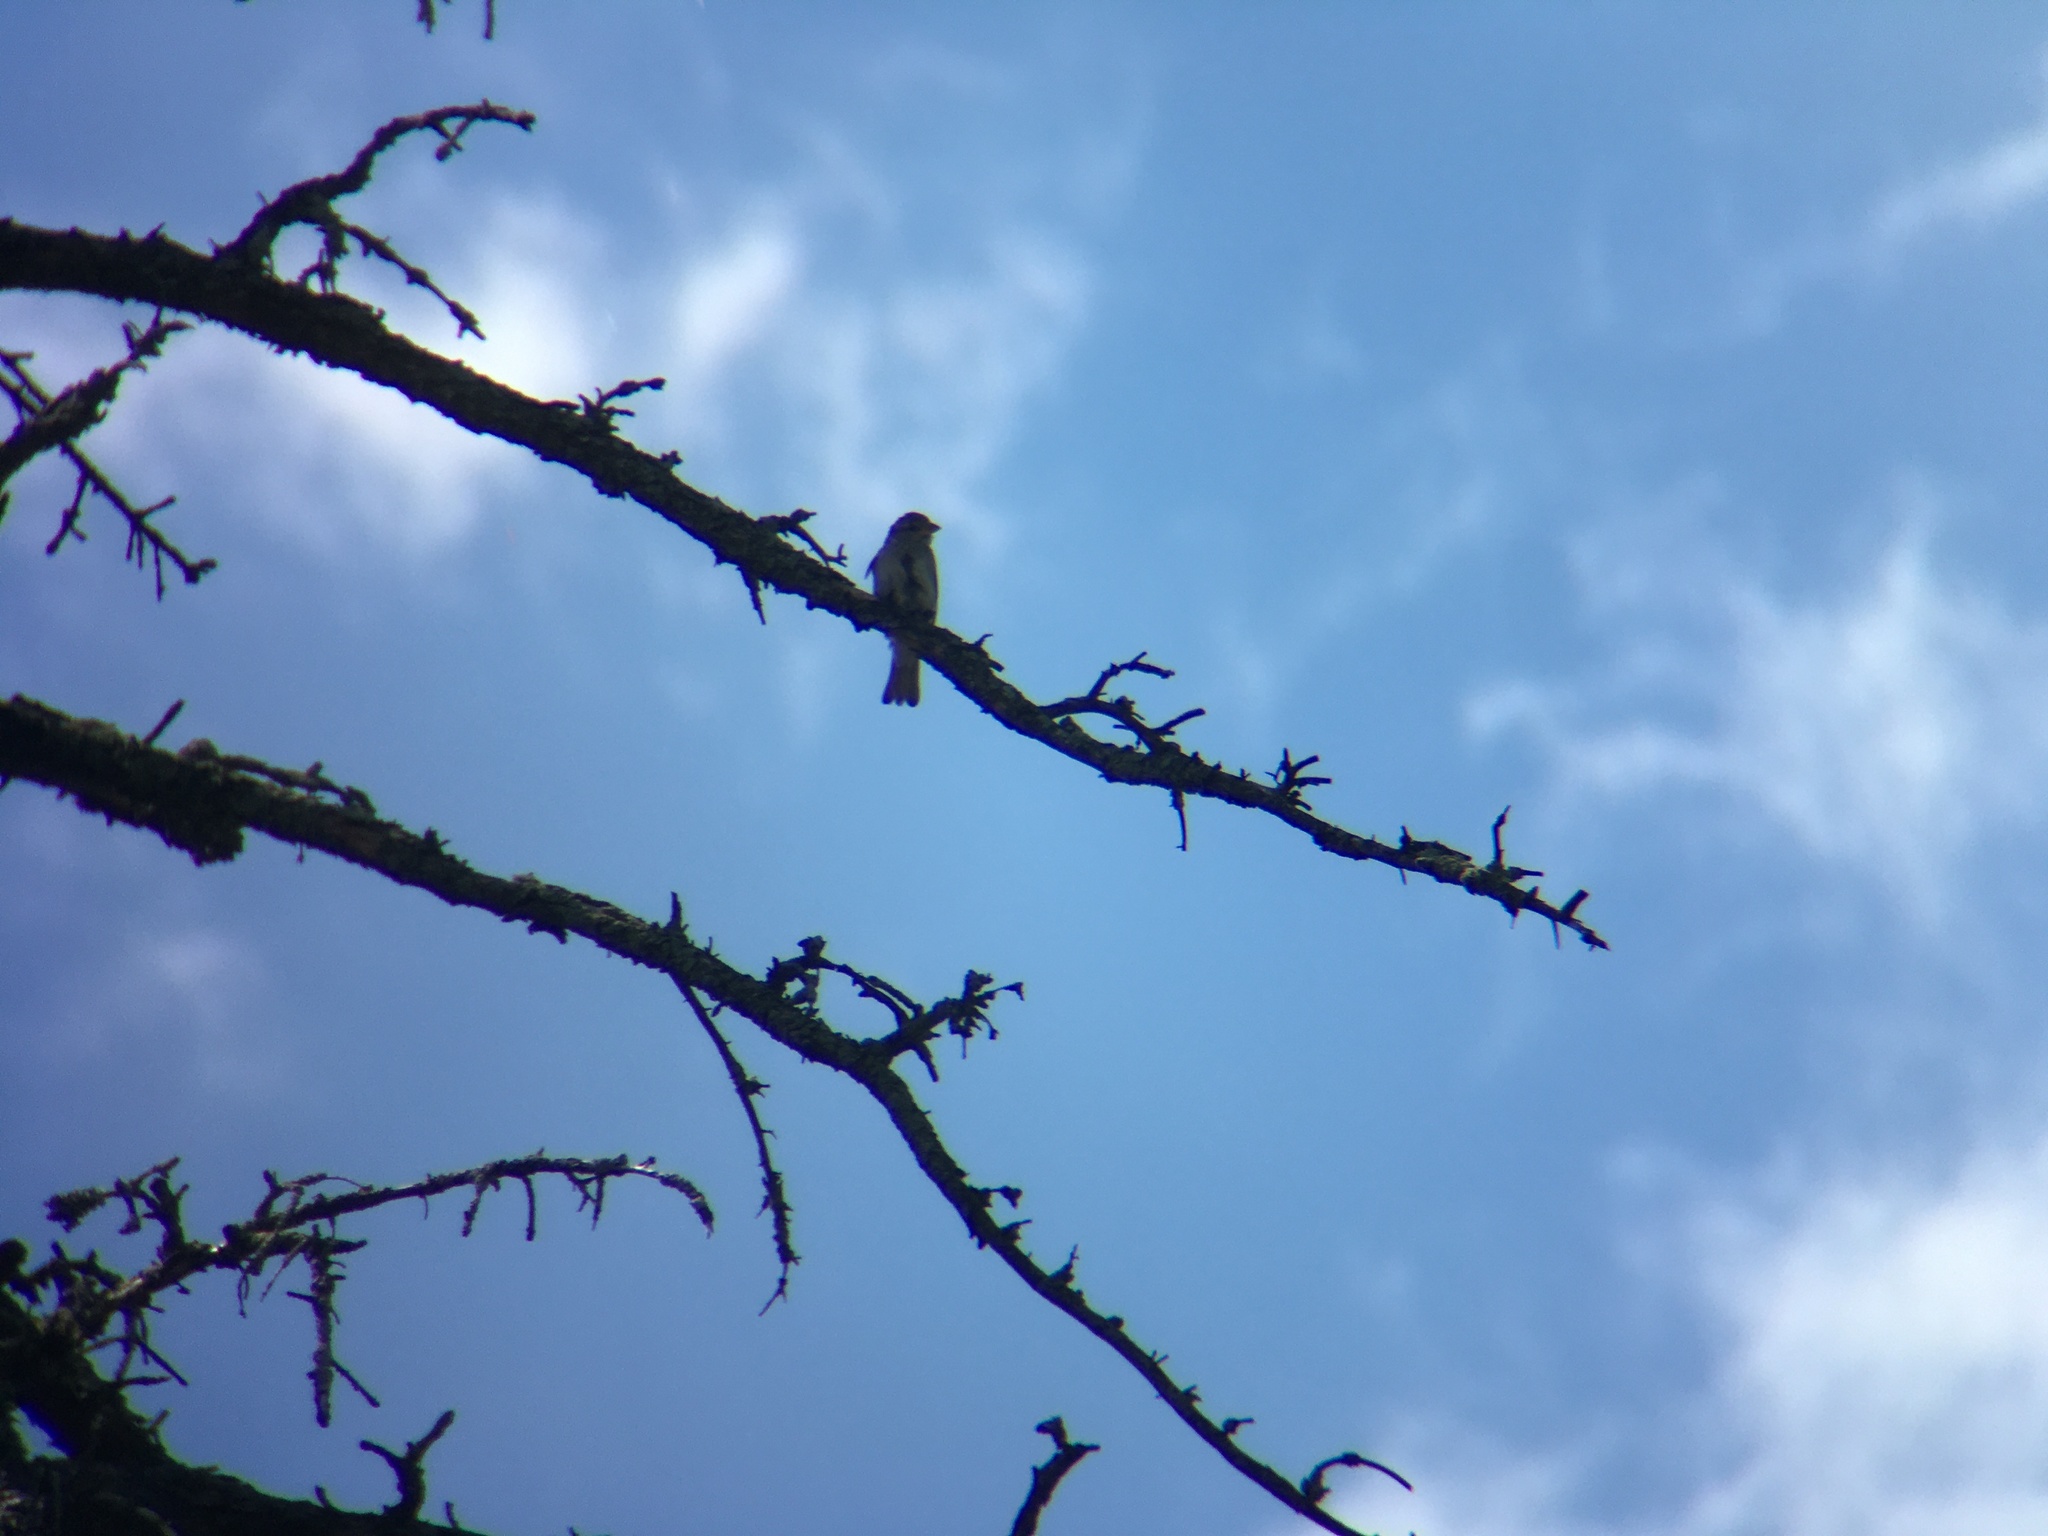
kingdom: Animalia
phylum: Chordata
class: Aves
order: Passeriformes
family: Passeridae
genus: Passer
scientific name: Passer domesticus
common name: House sparrow
